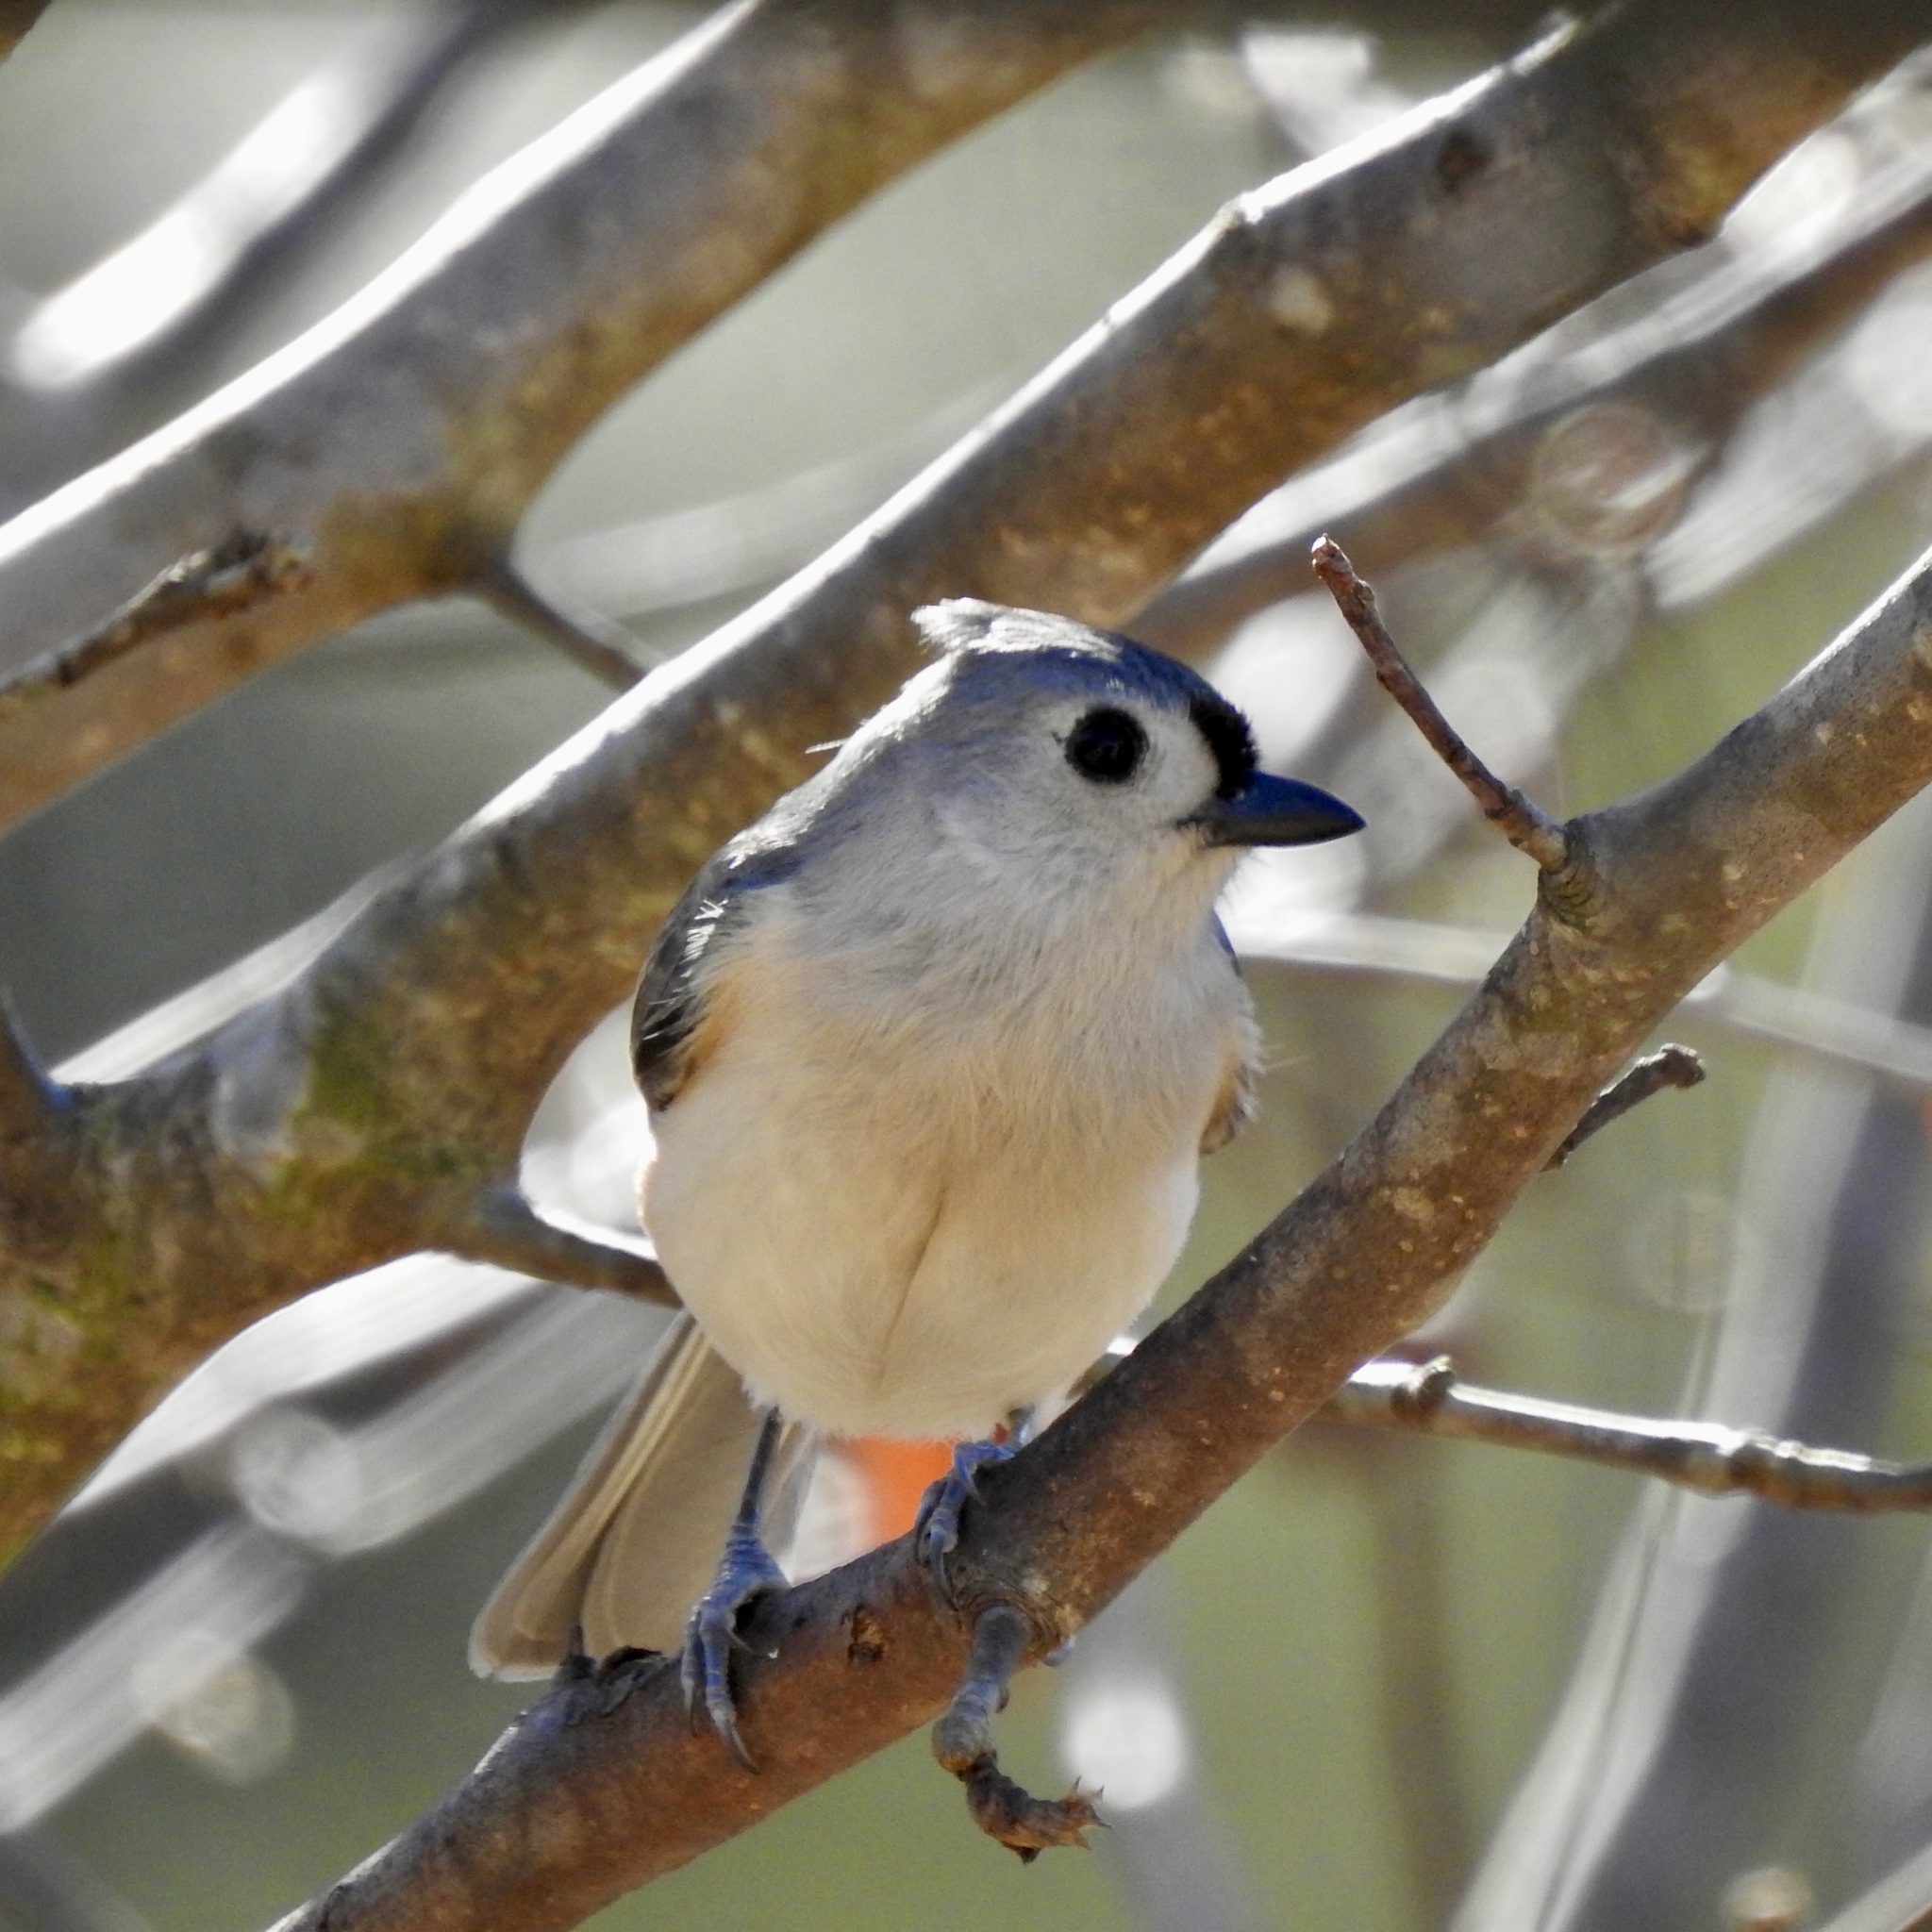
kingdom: Animalia
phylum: Chordata
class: Aves
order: Passeriformes
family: Paridae
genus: Baeolophus
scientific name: Baeolophus bicolor
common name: Tufted titmouse
